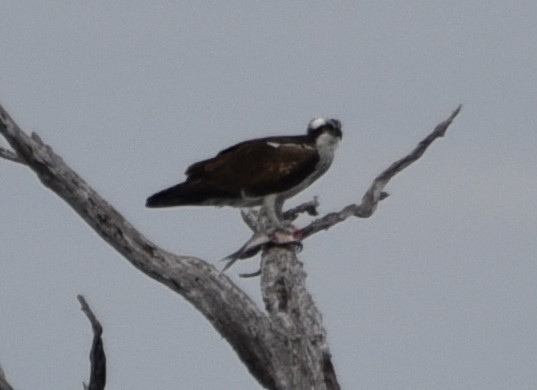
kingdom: Animalia
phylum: Chordata
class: Aves
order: Accipitriformes
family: Pandionidae
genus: Pandion
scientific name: Pandion haliaetus
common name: Osprey
